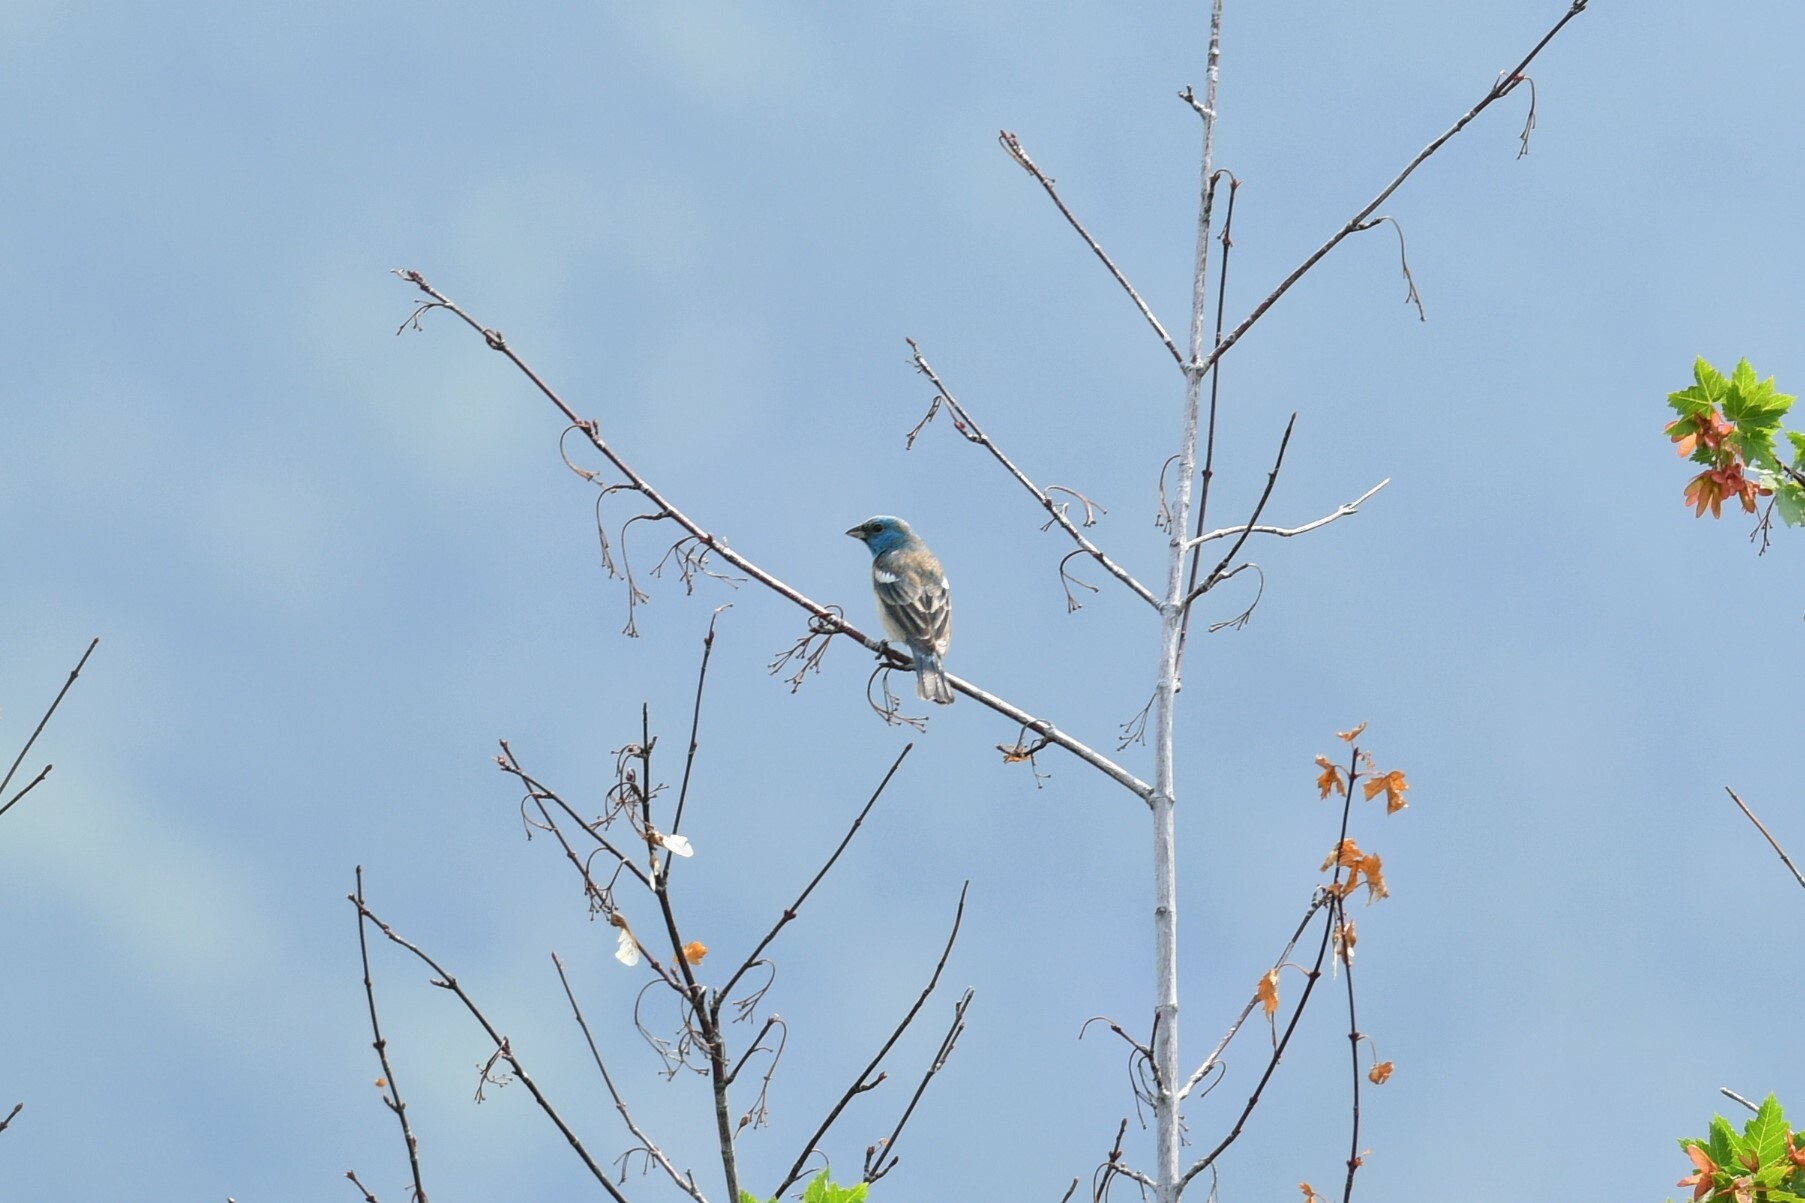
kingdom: Animalia
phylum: Chordata
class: Aves
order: Passeriformes
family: Cardinalidae
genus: Passerina
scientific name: Passerina amoena
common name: Lazuli bunting
